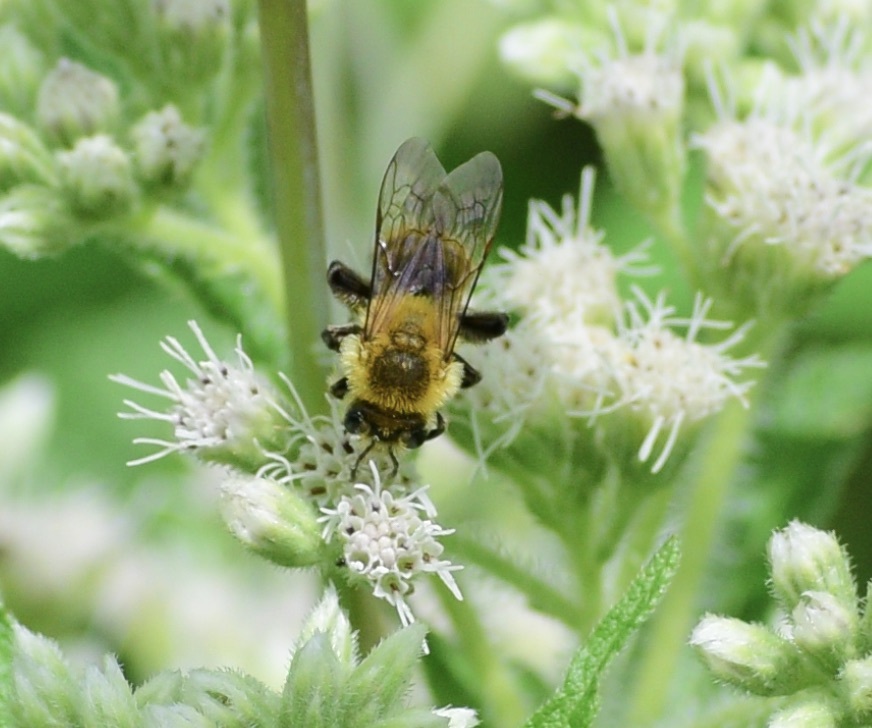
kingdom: Animalia
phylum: Arthropoda
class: Insecta
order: Hymenoptera
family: Andrenidae
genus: Andrena
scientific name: Andrena hirticincta
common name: Hairy-banded mining bee
